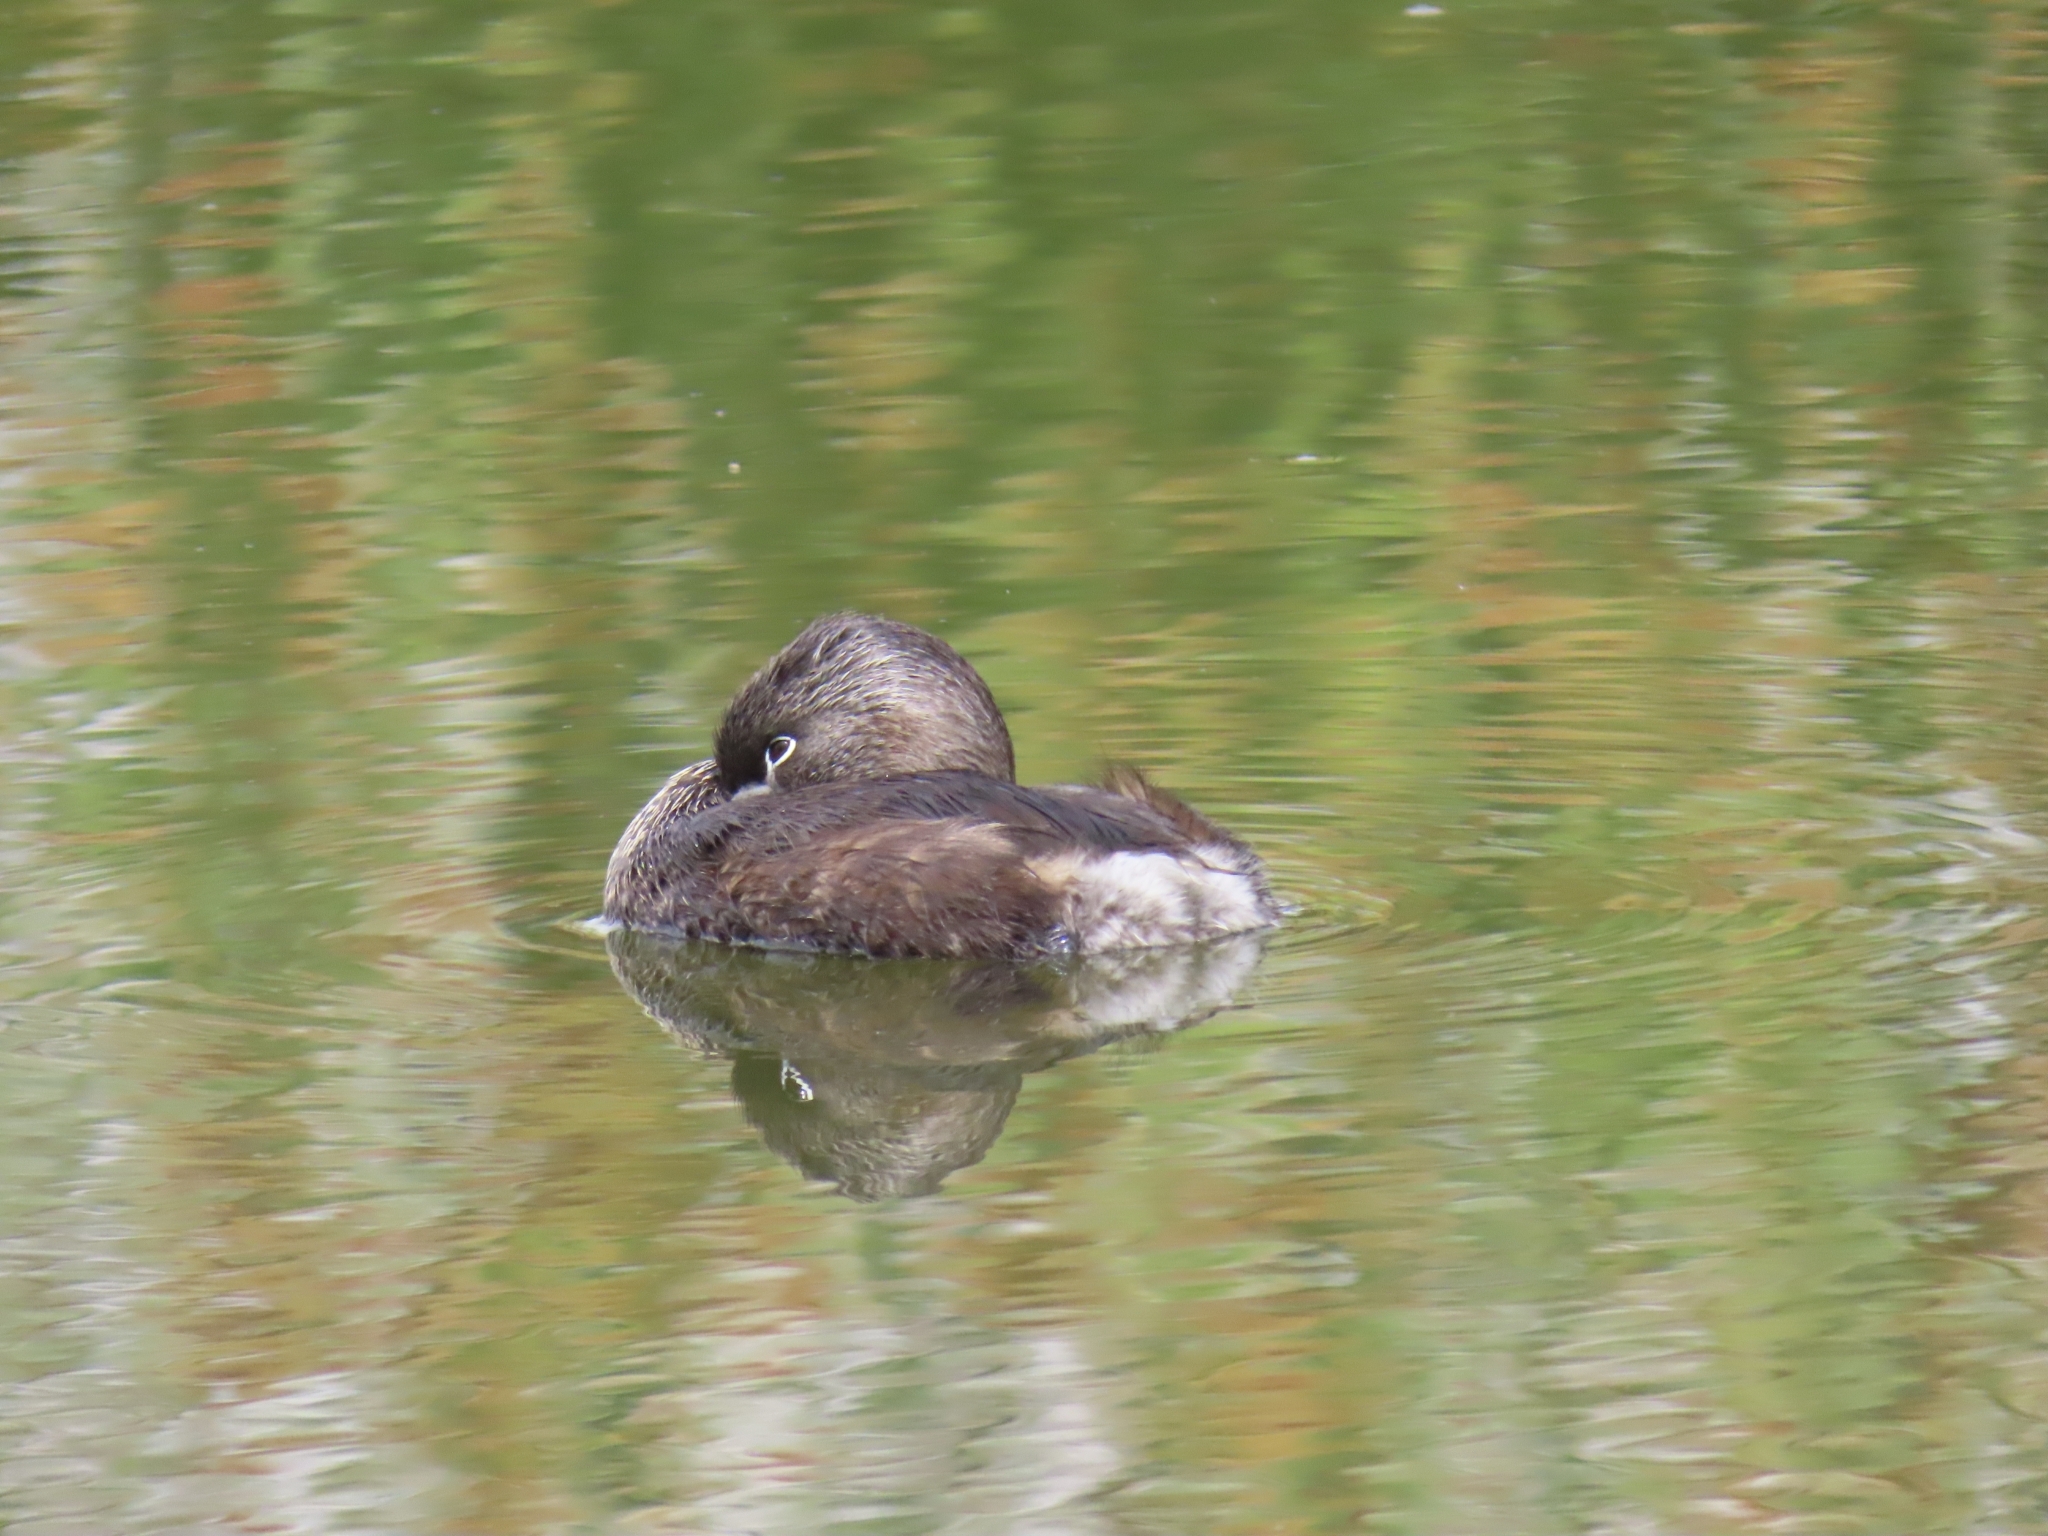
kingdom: Animalia
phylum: Chordata
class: Aves
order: Podicipediformes
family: Podicipedidae
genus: Podilymbus
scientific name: Podilymbus podiceps
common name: Pied-billed grebe
